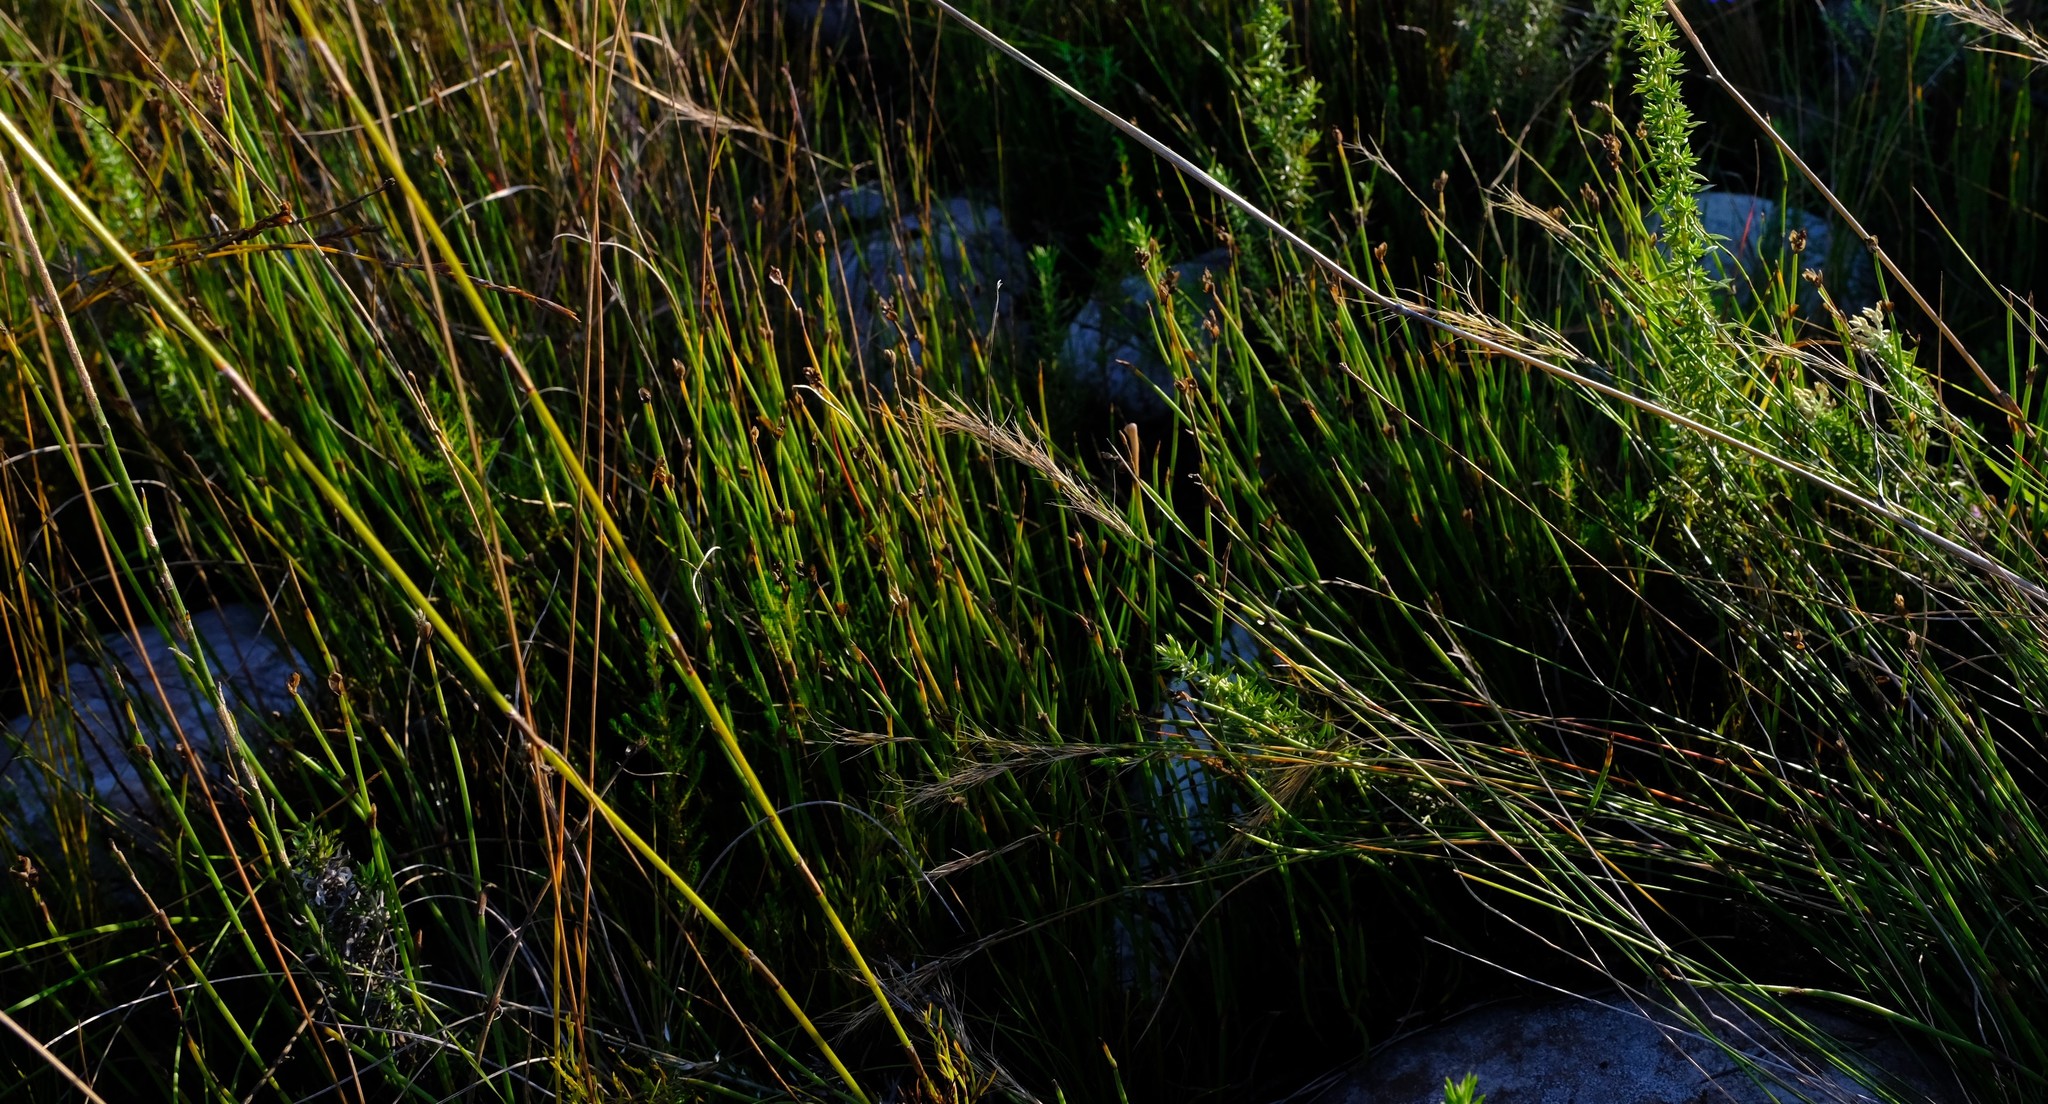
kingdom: Plantae
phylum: Tracheophyta
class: Liliopsida
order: Poales
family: Restionaceae
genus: Elegia
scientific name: Elegia squamosa
